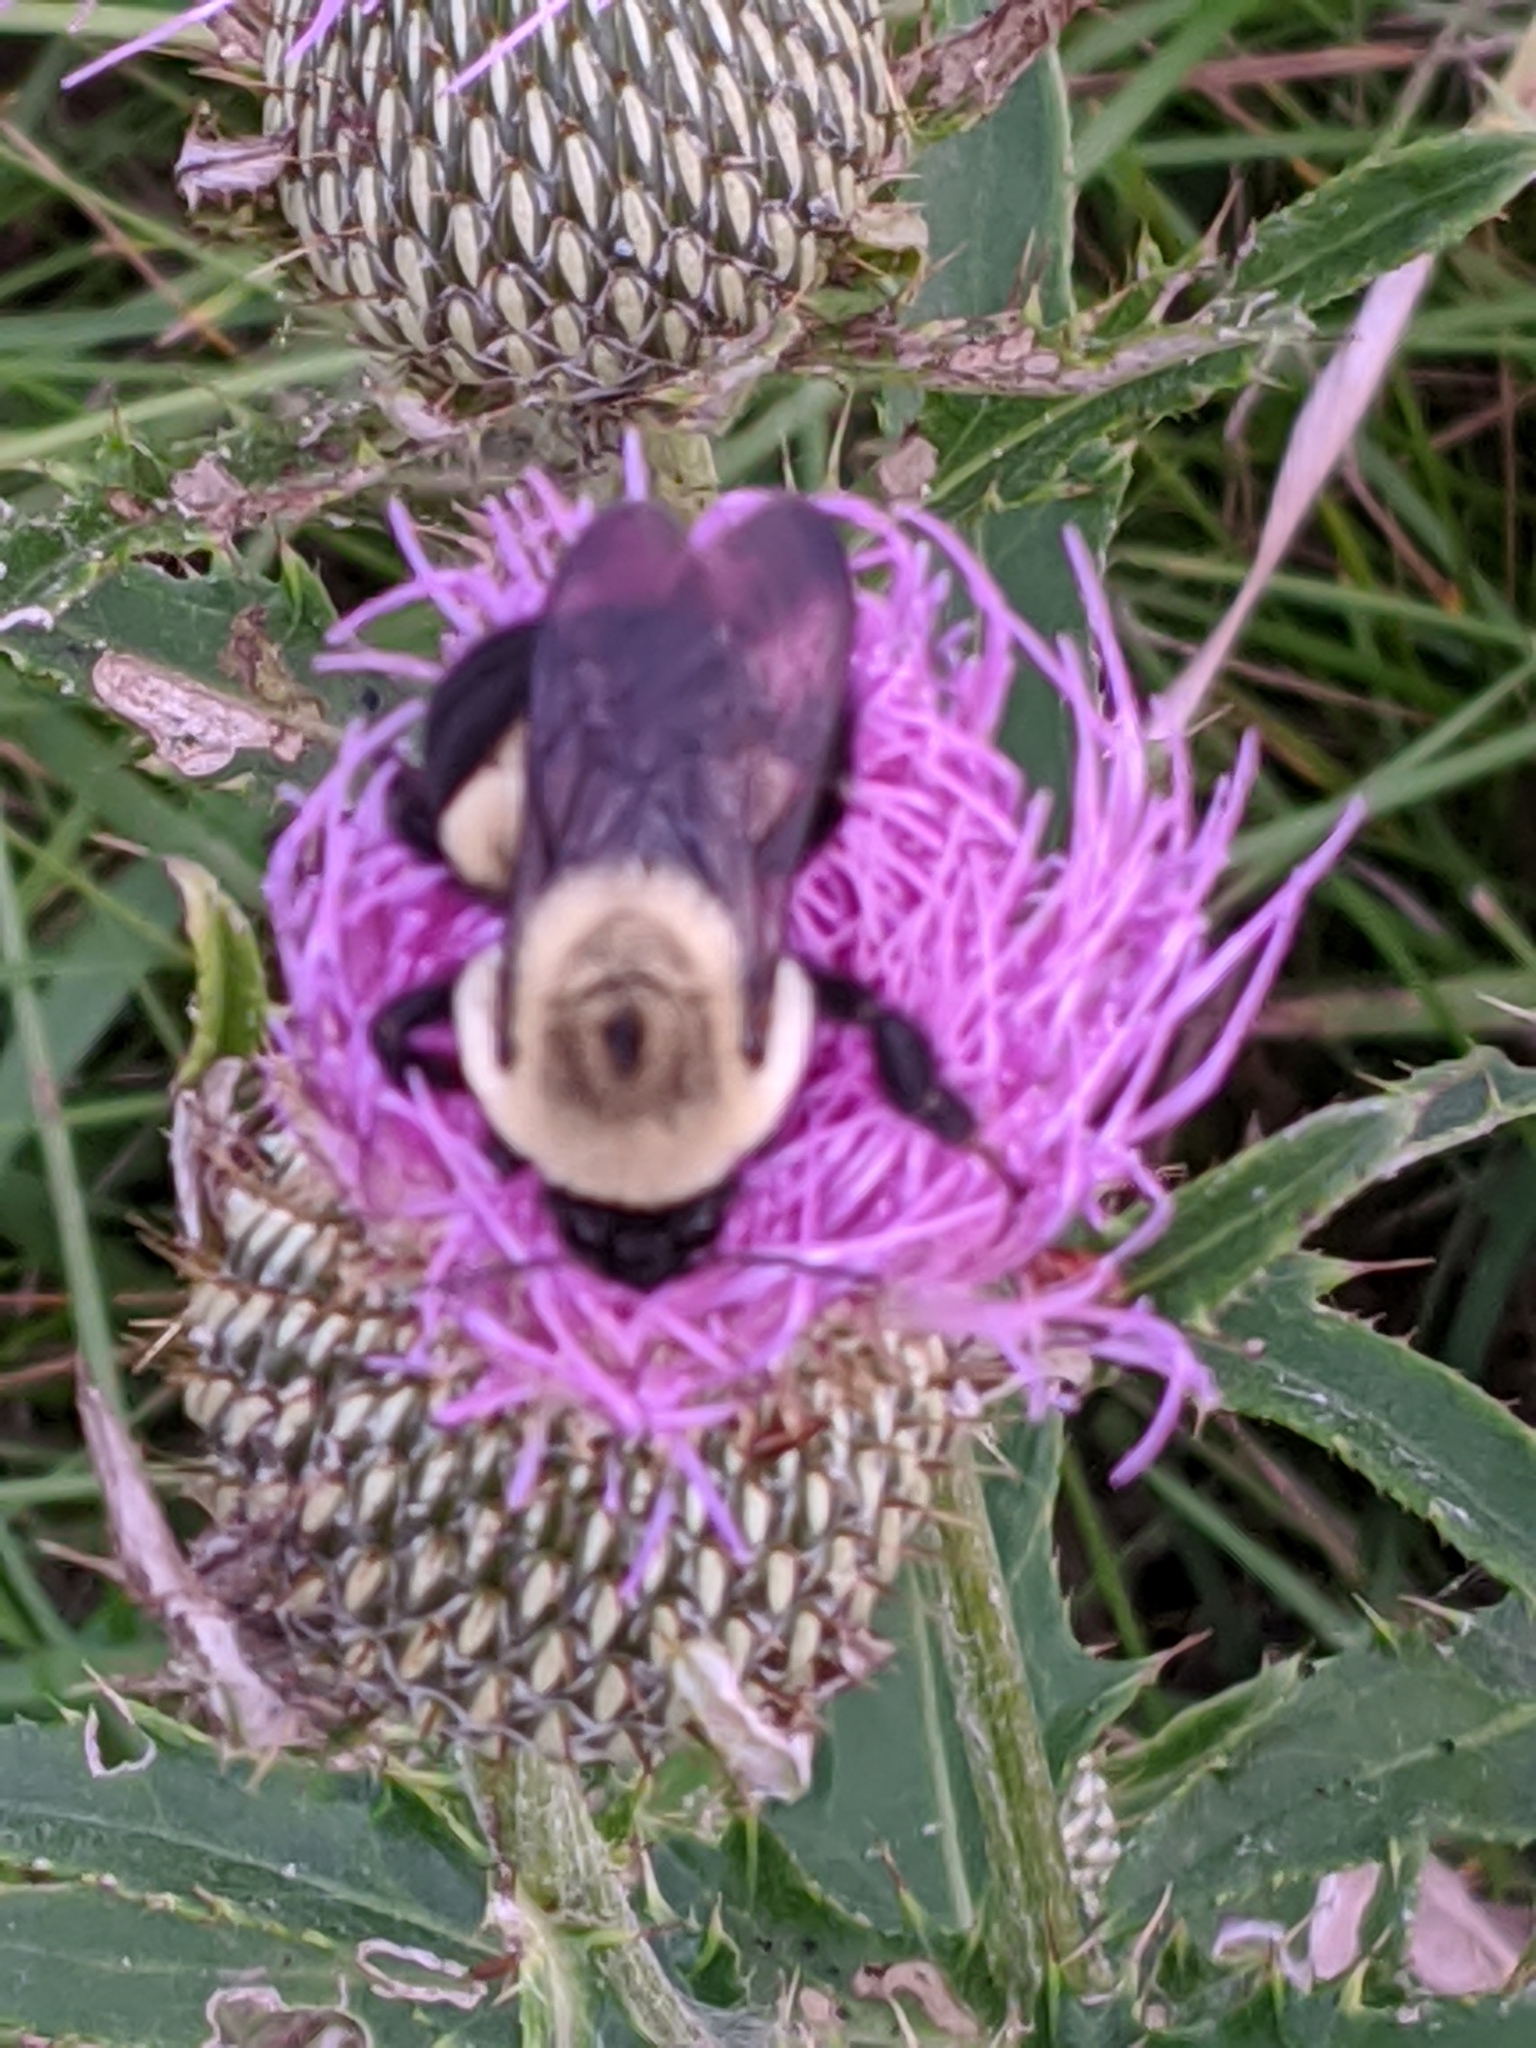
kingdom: Animalia
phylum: Arthropoda
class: Insecta
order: Hymenoptera
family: Apidae
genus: Bombus
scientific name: Bombus griseocollis
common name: Brown-belted bumble bee
